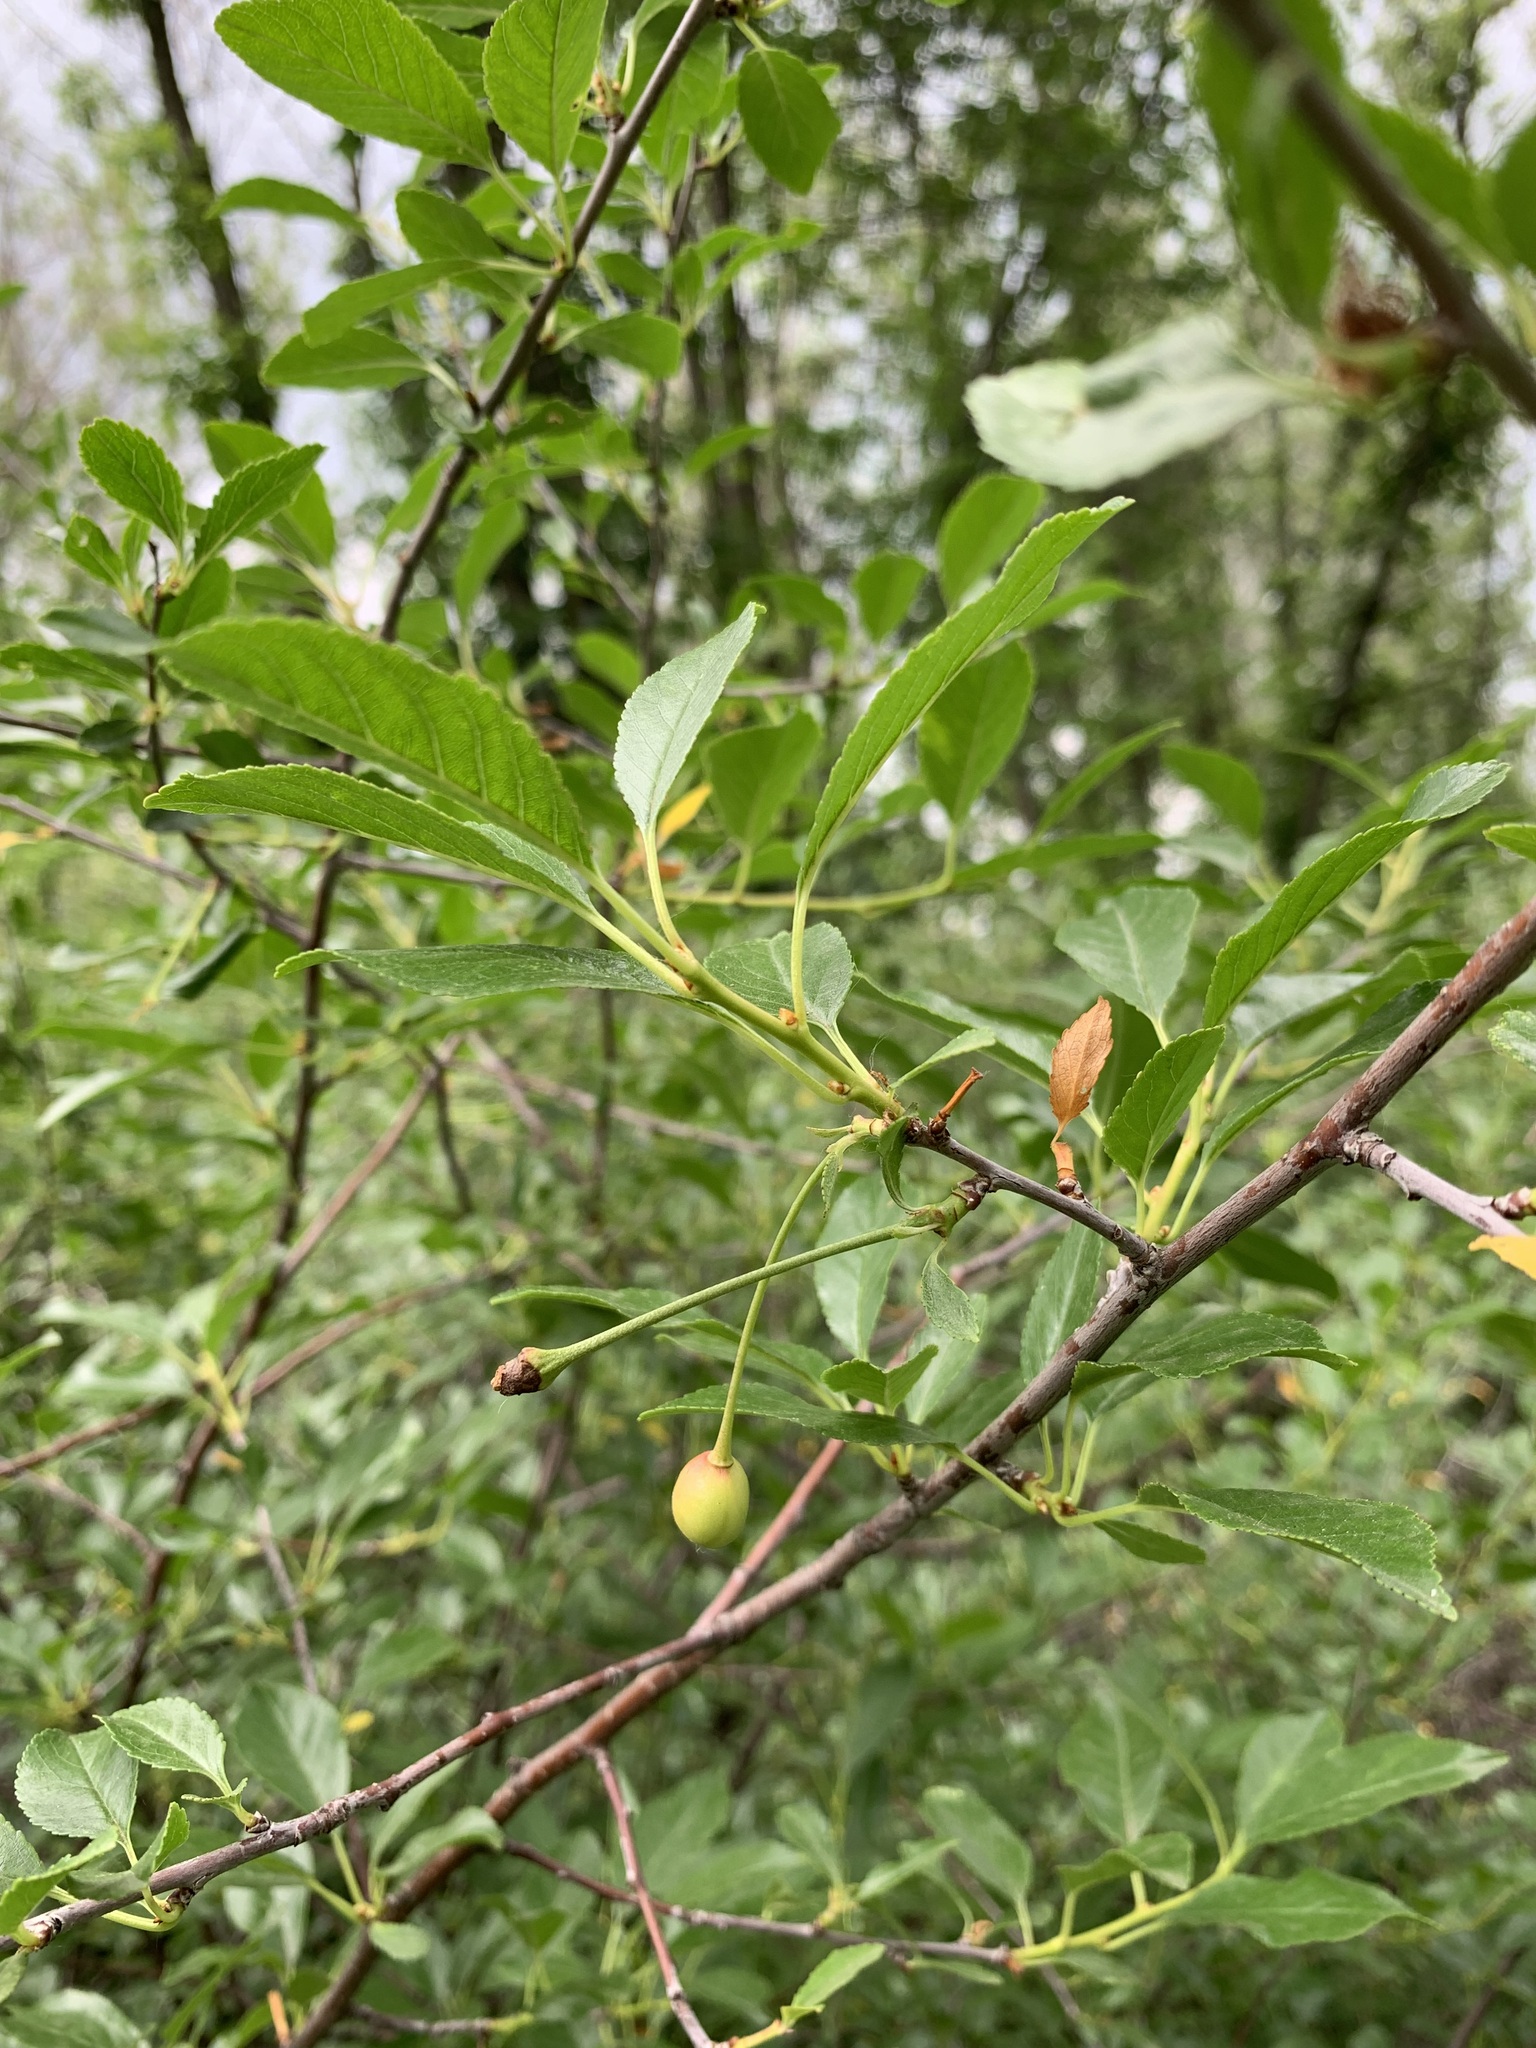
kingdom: Plantae
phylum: Tracheophyta
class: Magnoliopsida
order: Rosales
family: Rosaceae
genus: Prunus
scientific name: Prunus cerasus
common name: Morello cherry
